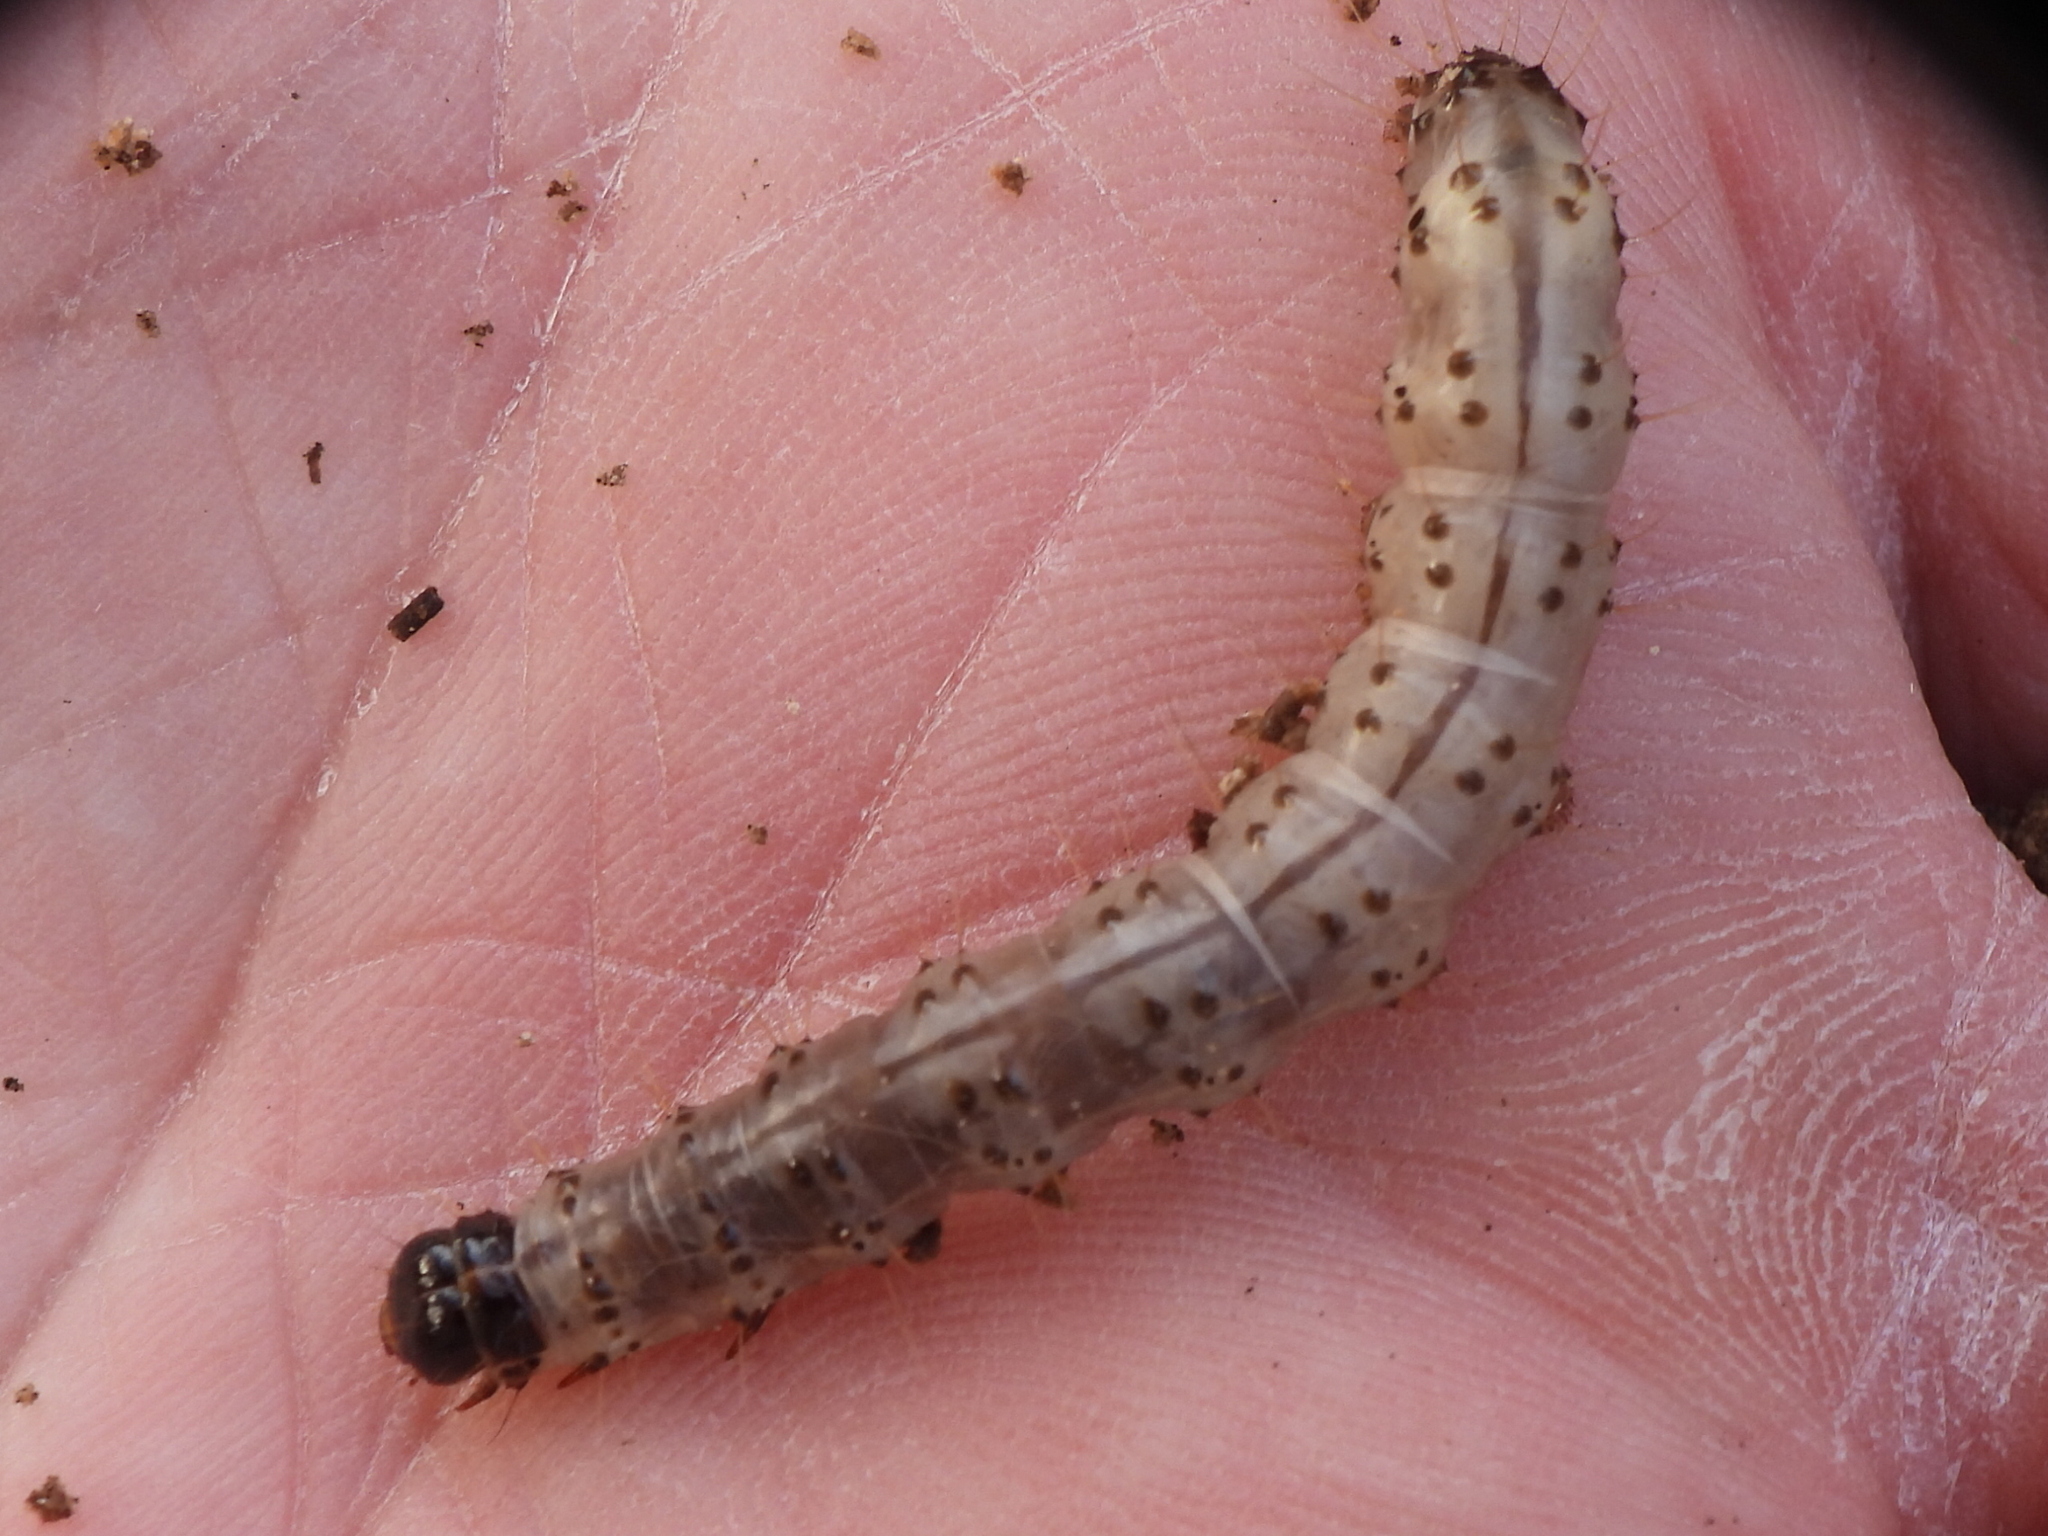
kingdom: Animalia
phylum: Arthropoda
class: Insecta
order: Lepidoptera
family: Erebidae
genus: Scolecocampa
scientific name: Scolecocampa liburna
